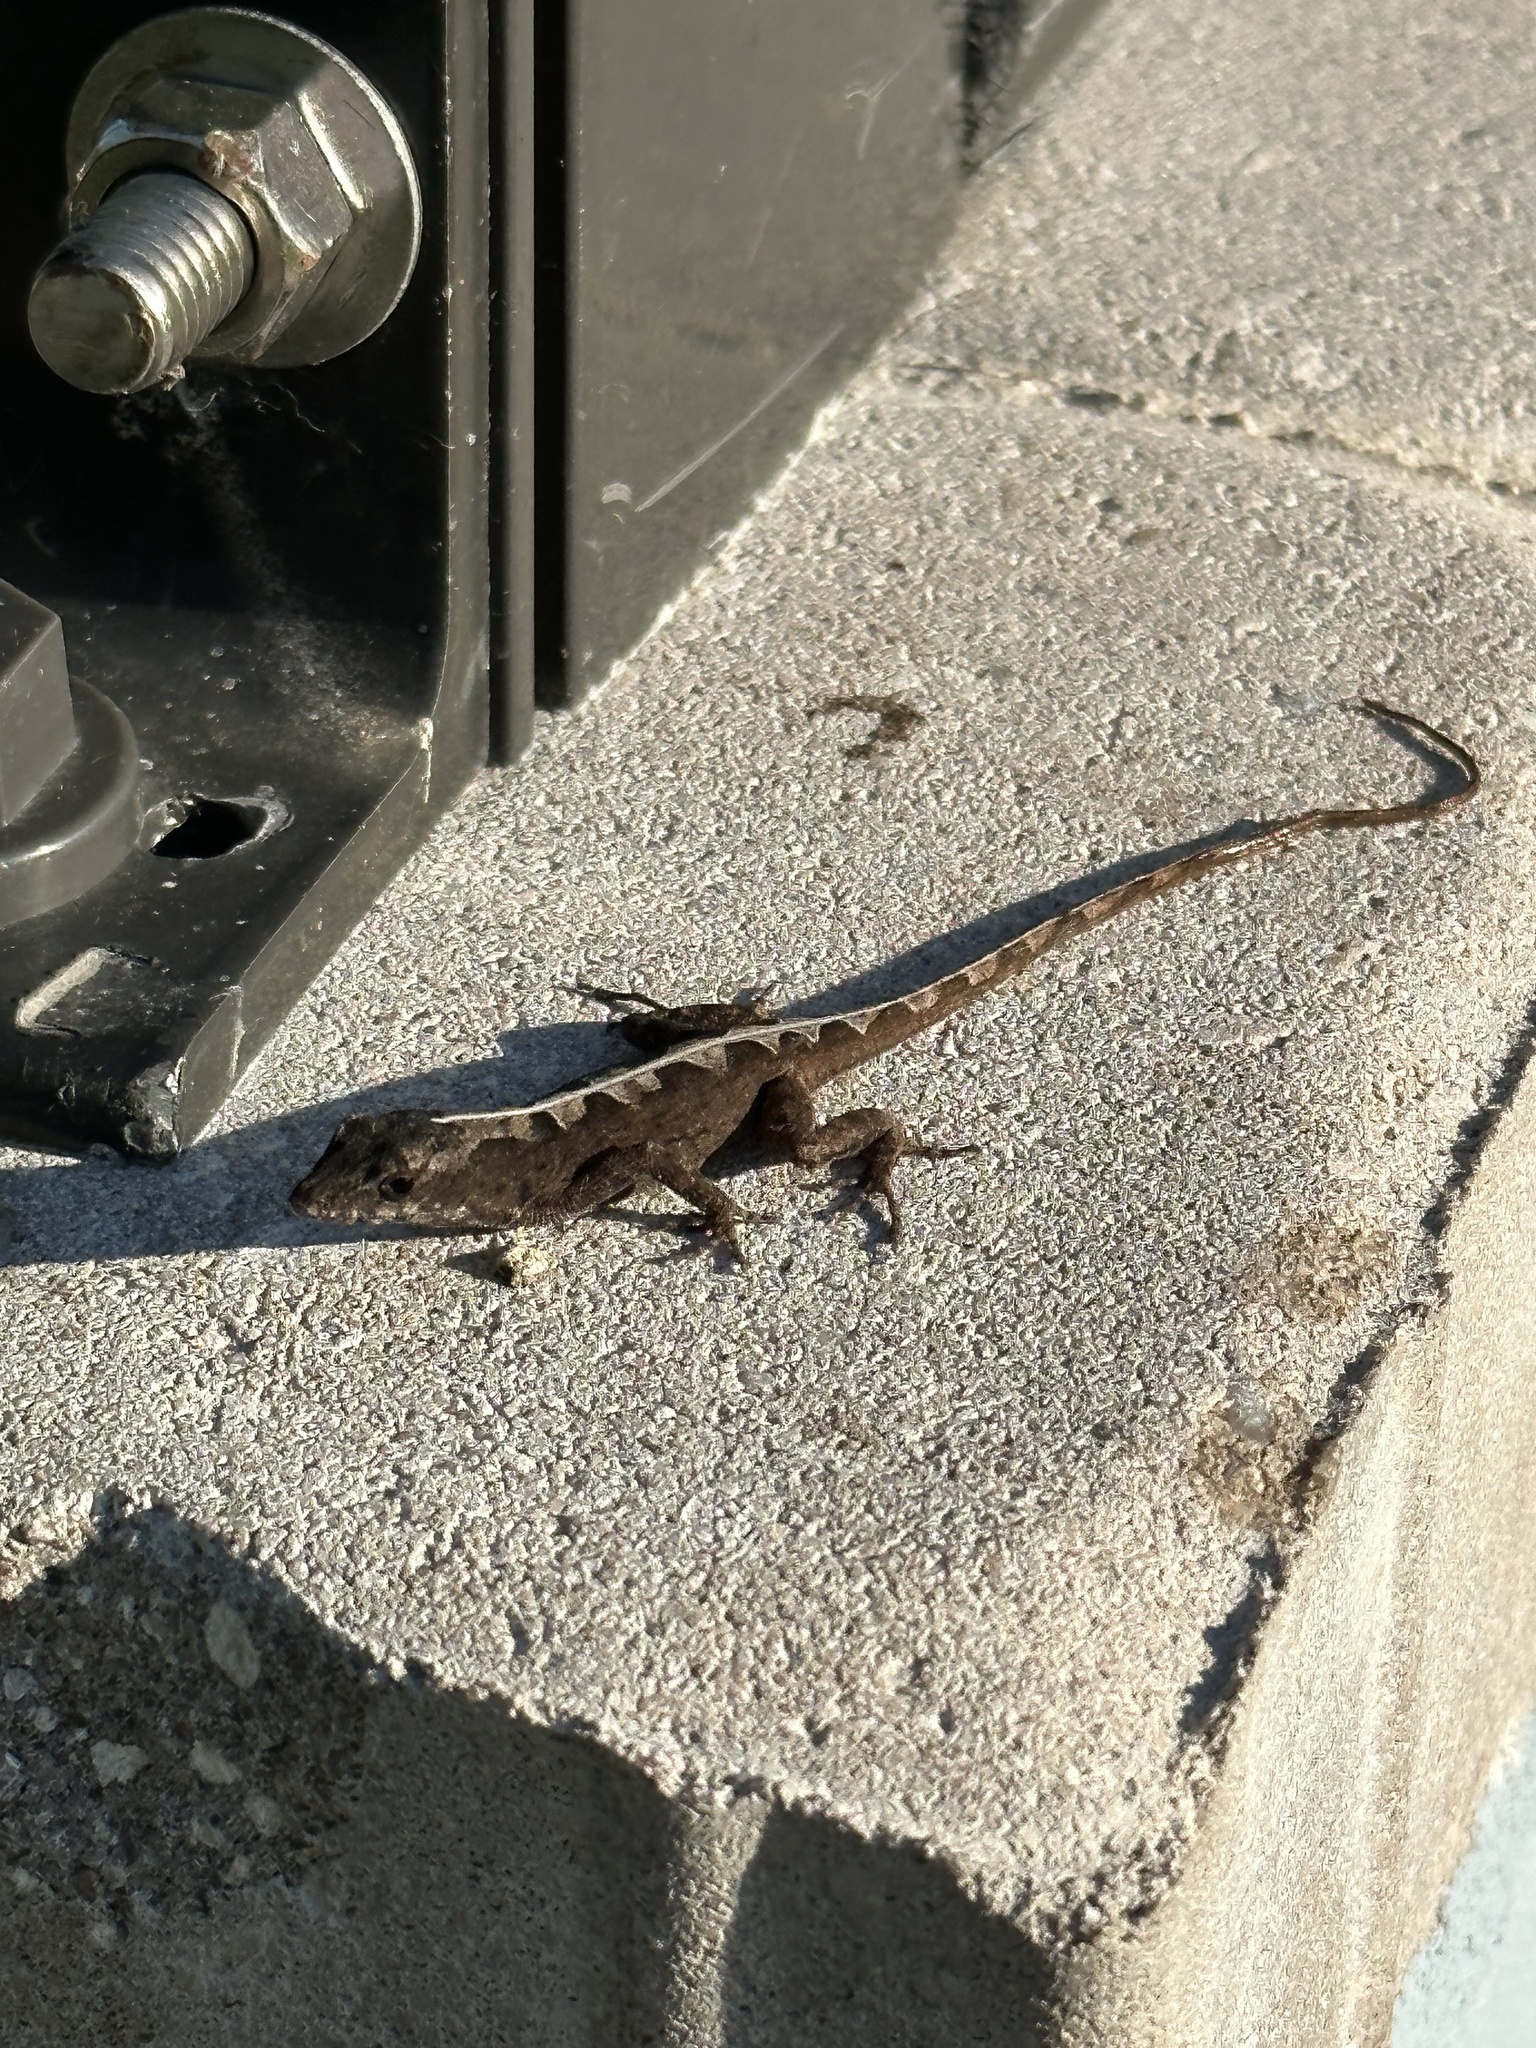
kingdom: Animalia
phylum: Chordata
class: Squamata
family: Dactyloidae
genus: Anolis
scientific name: Anolis sagrei
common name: Brown anole
